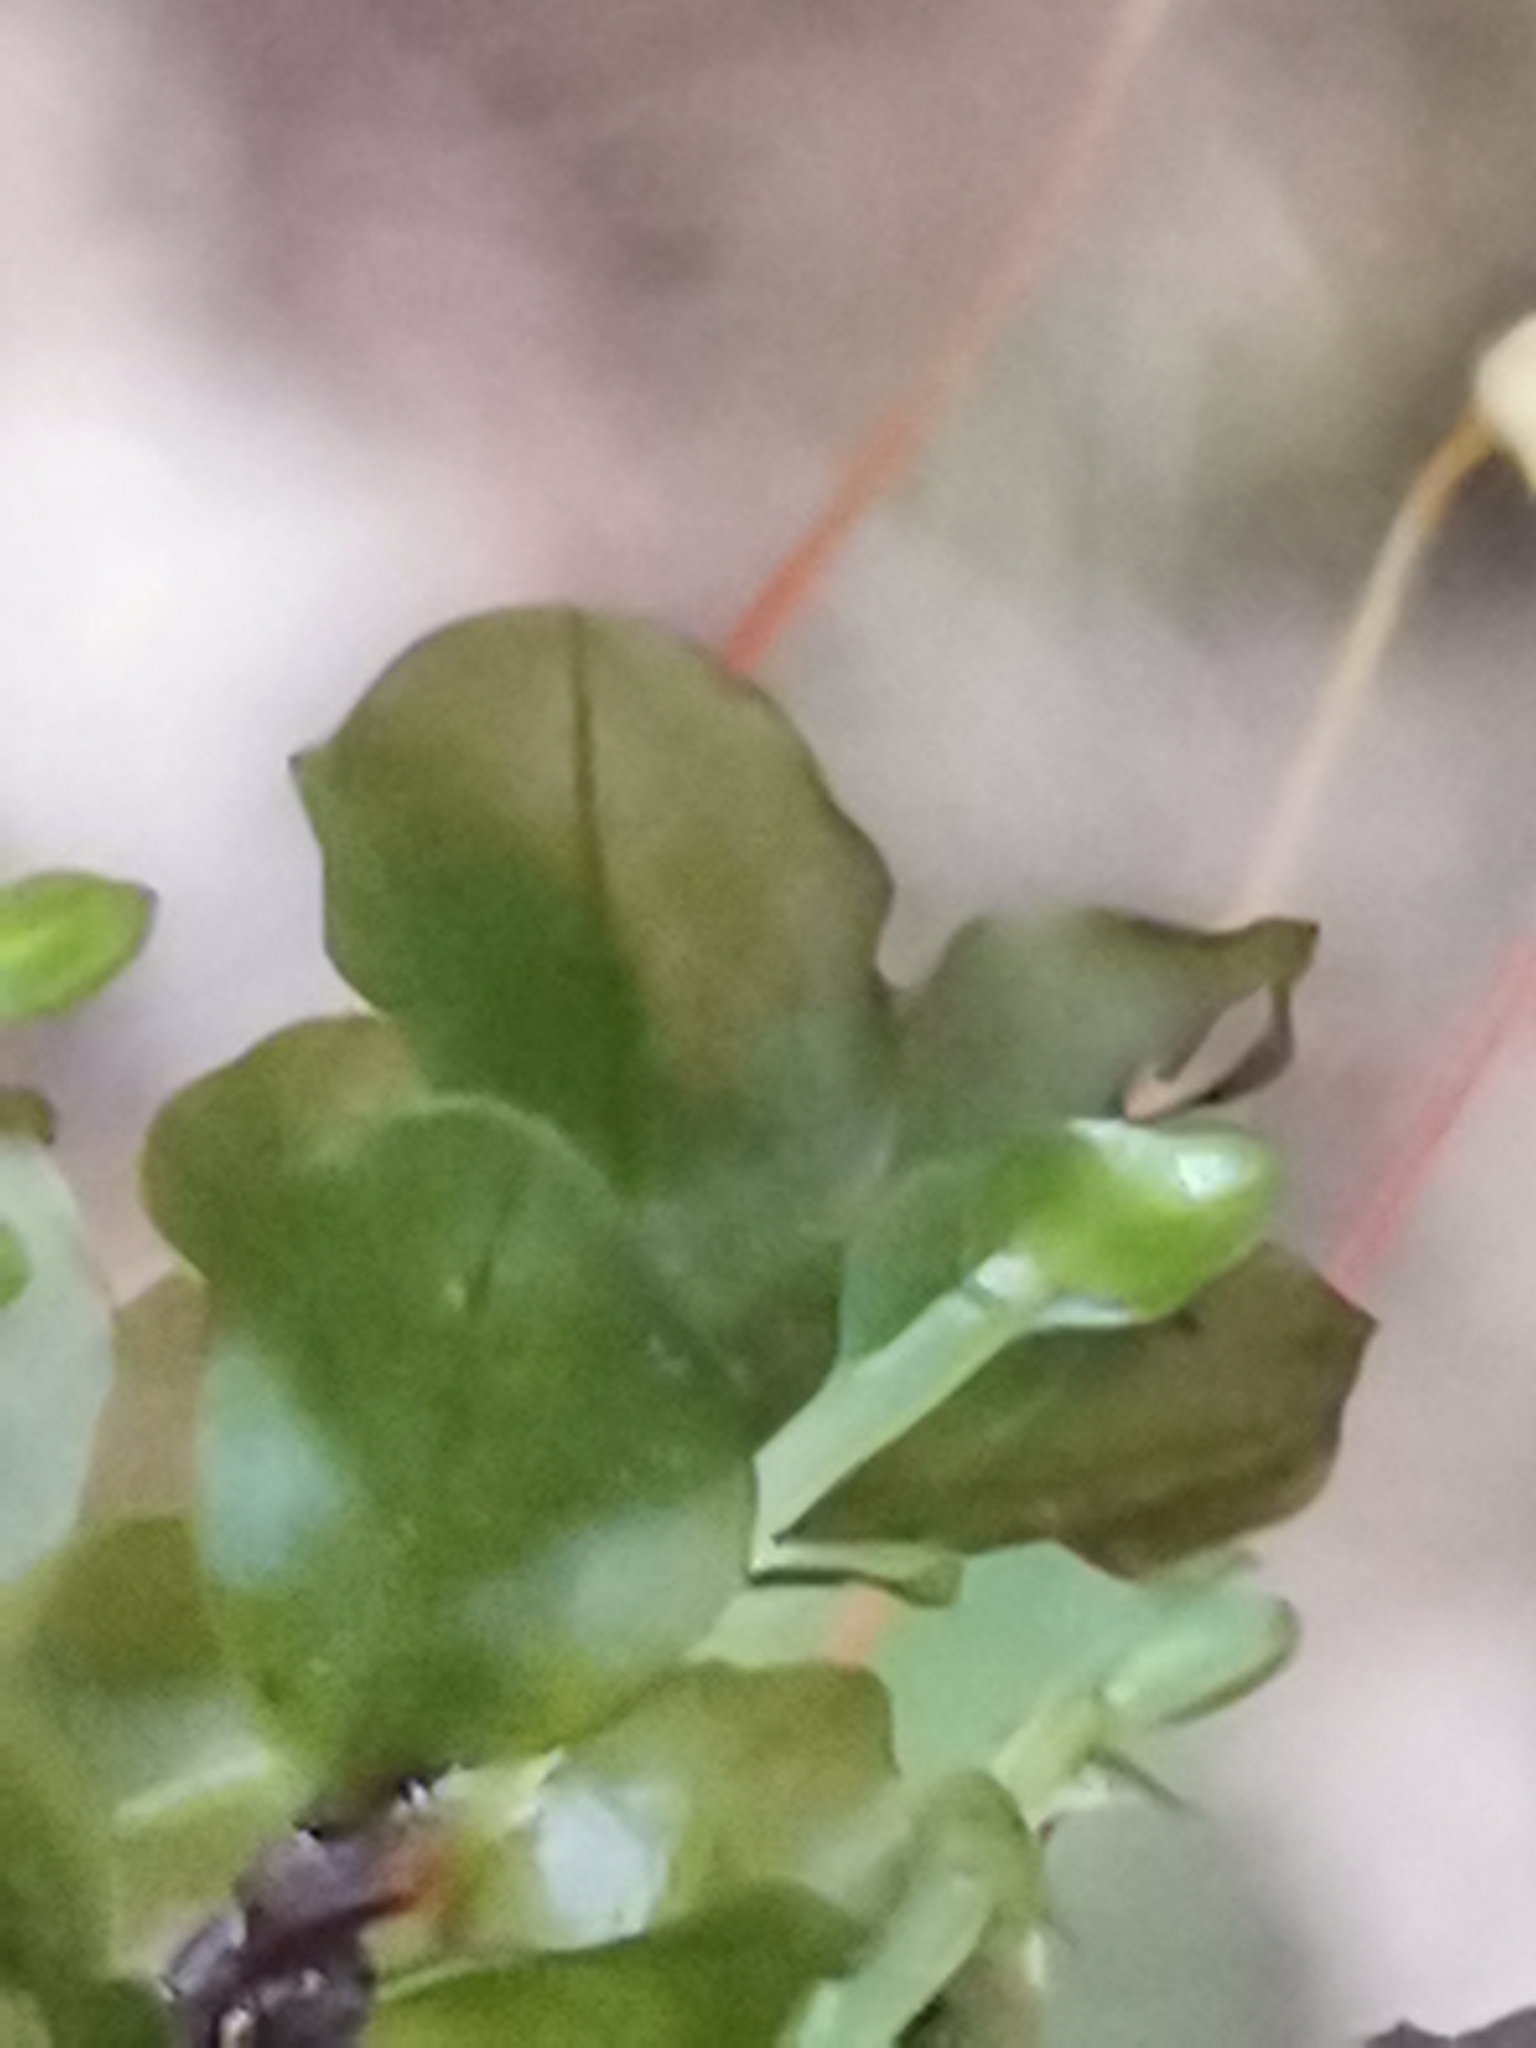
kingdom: Plantae
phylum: Bryophyta
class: Bryopsida
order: Bryales
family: Mniaceae
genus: Rhizomnium
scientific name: Rhizomnium punctatum
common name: Dotted leafy moss
